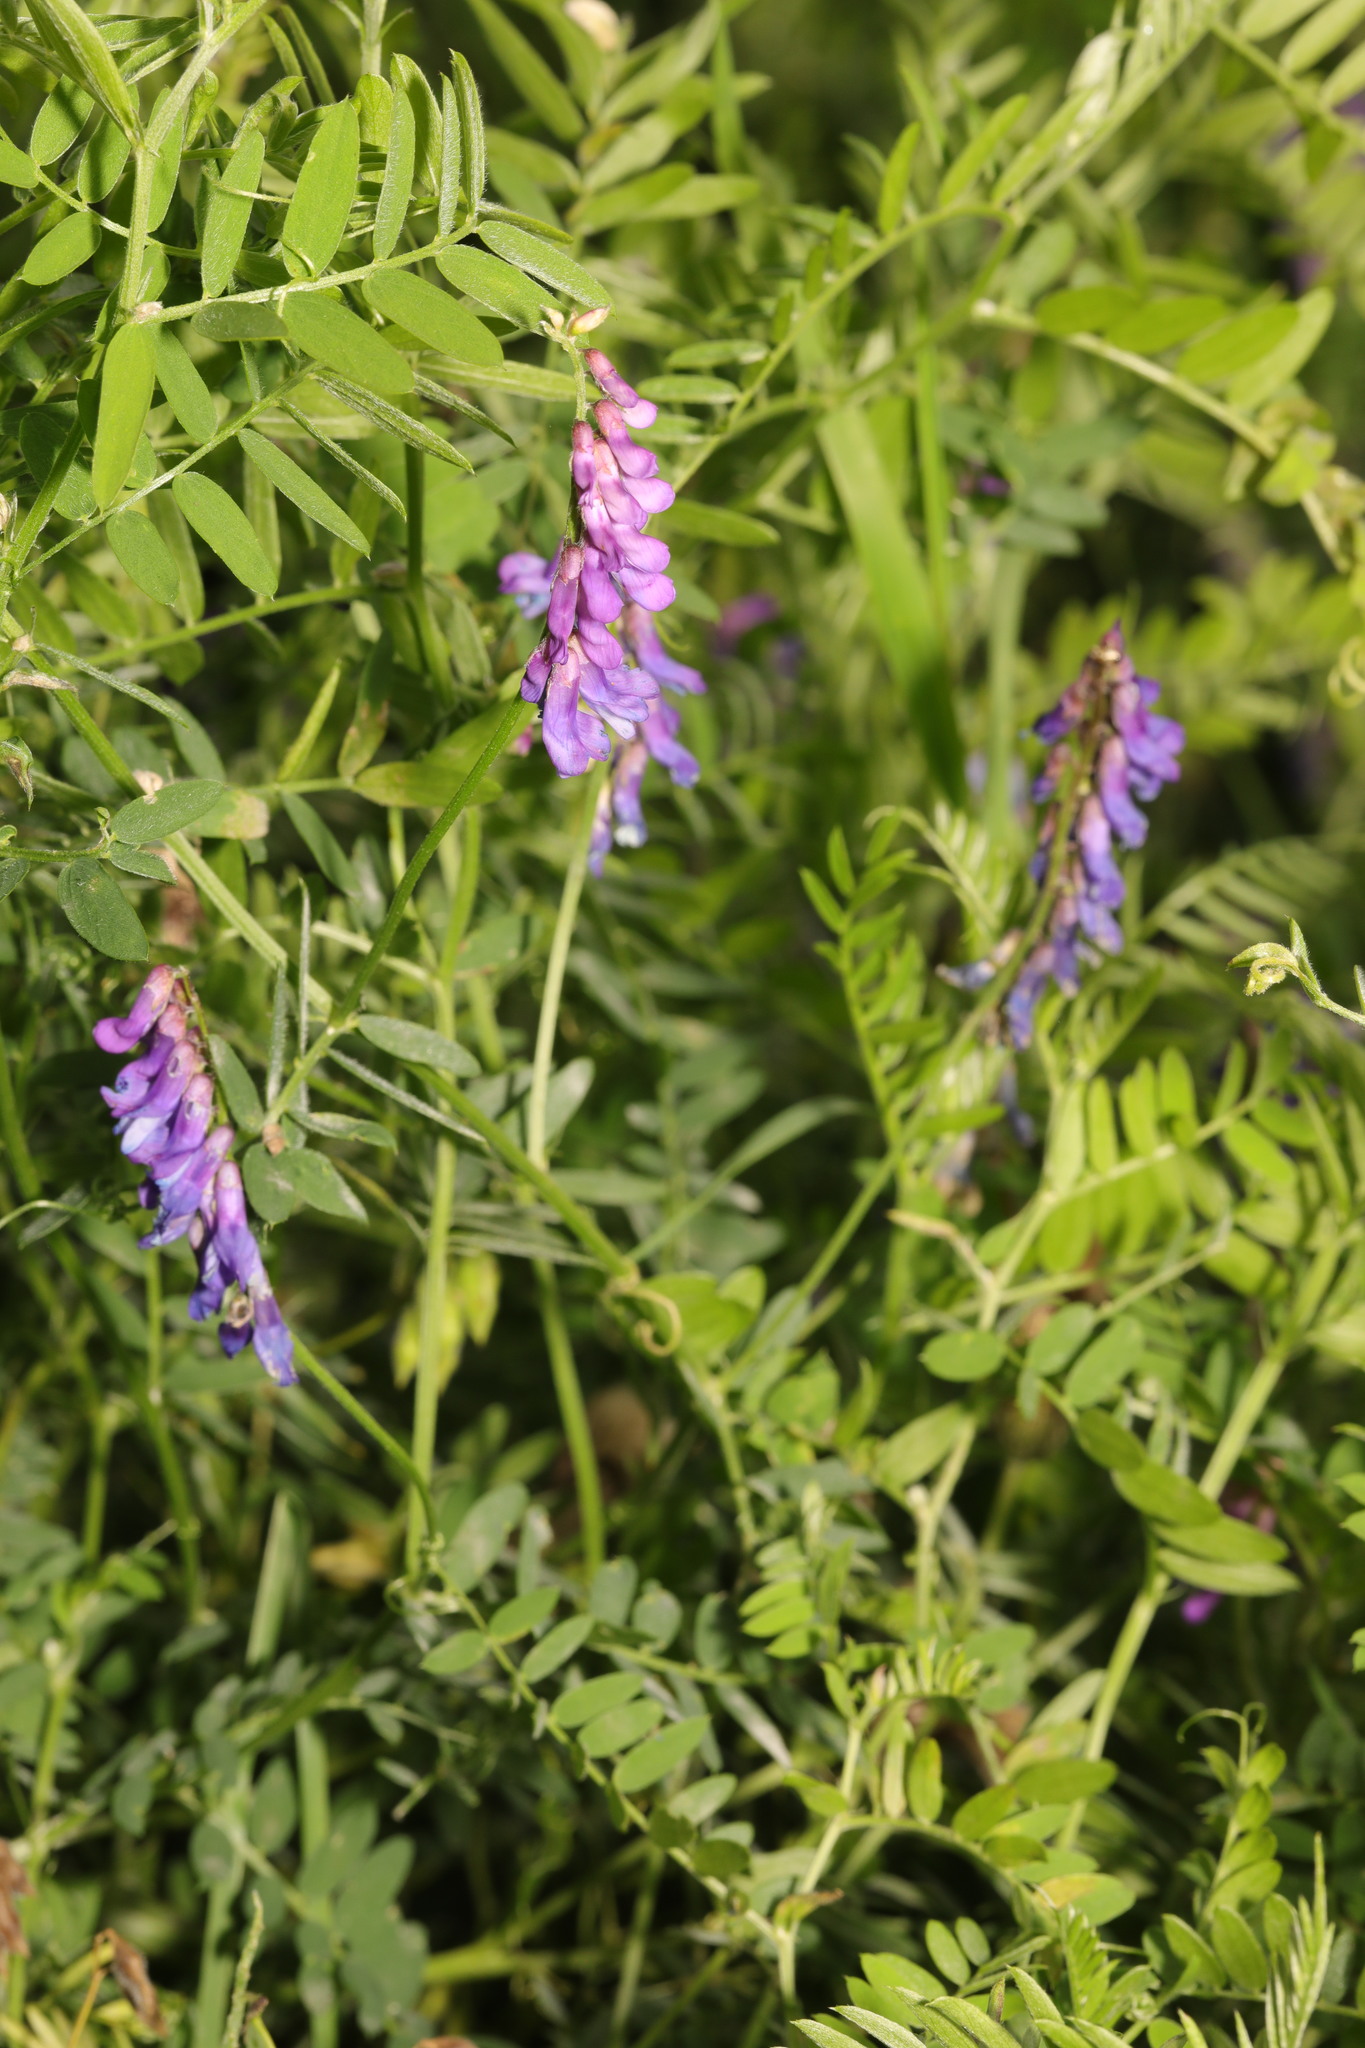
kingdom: Plantae
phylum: Tracheophyta
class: Magnoliopsida
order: Fabales
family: Fabaceae
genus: Vicia
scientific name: Vicia cracca
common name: Bird vetch
